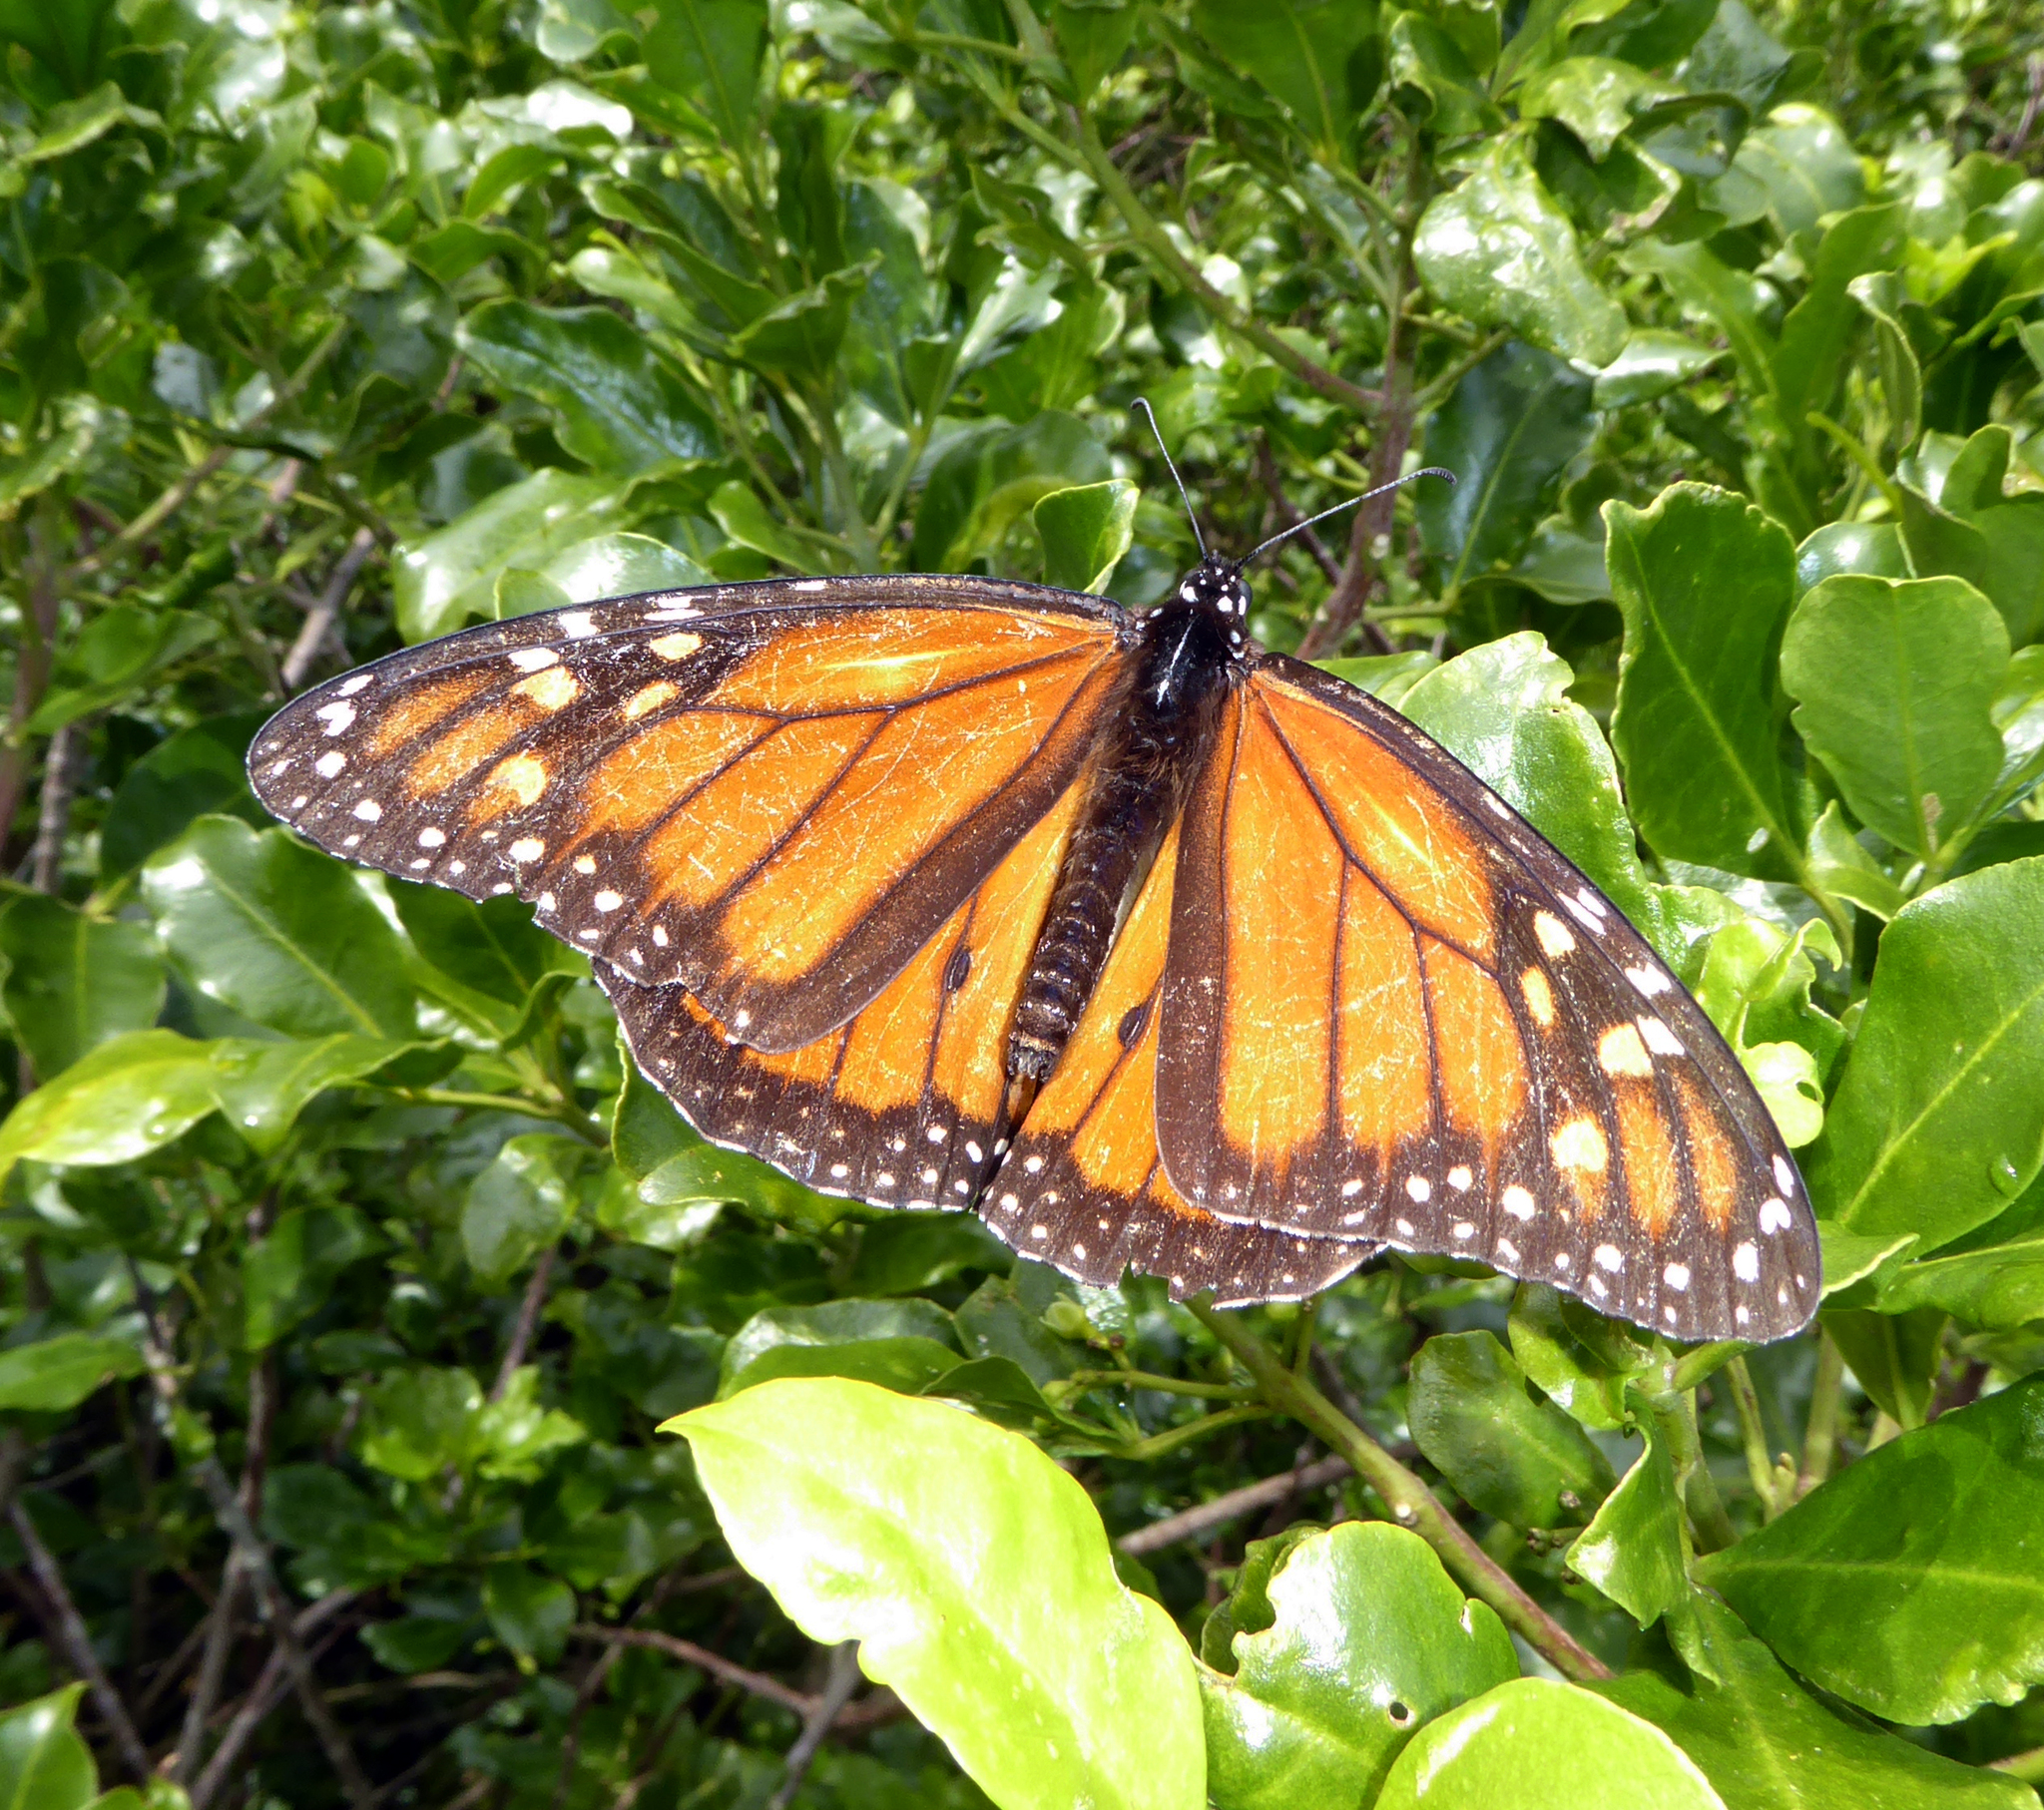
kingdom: Animalia
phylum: Arthropoda
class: Insecta
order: Lepidoptera
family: Nymphalidae
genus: Danaus
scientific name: Danaus plexippus
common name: Monarch
